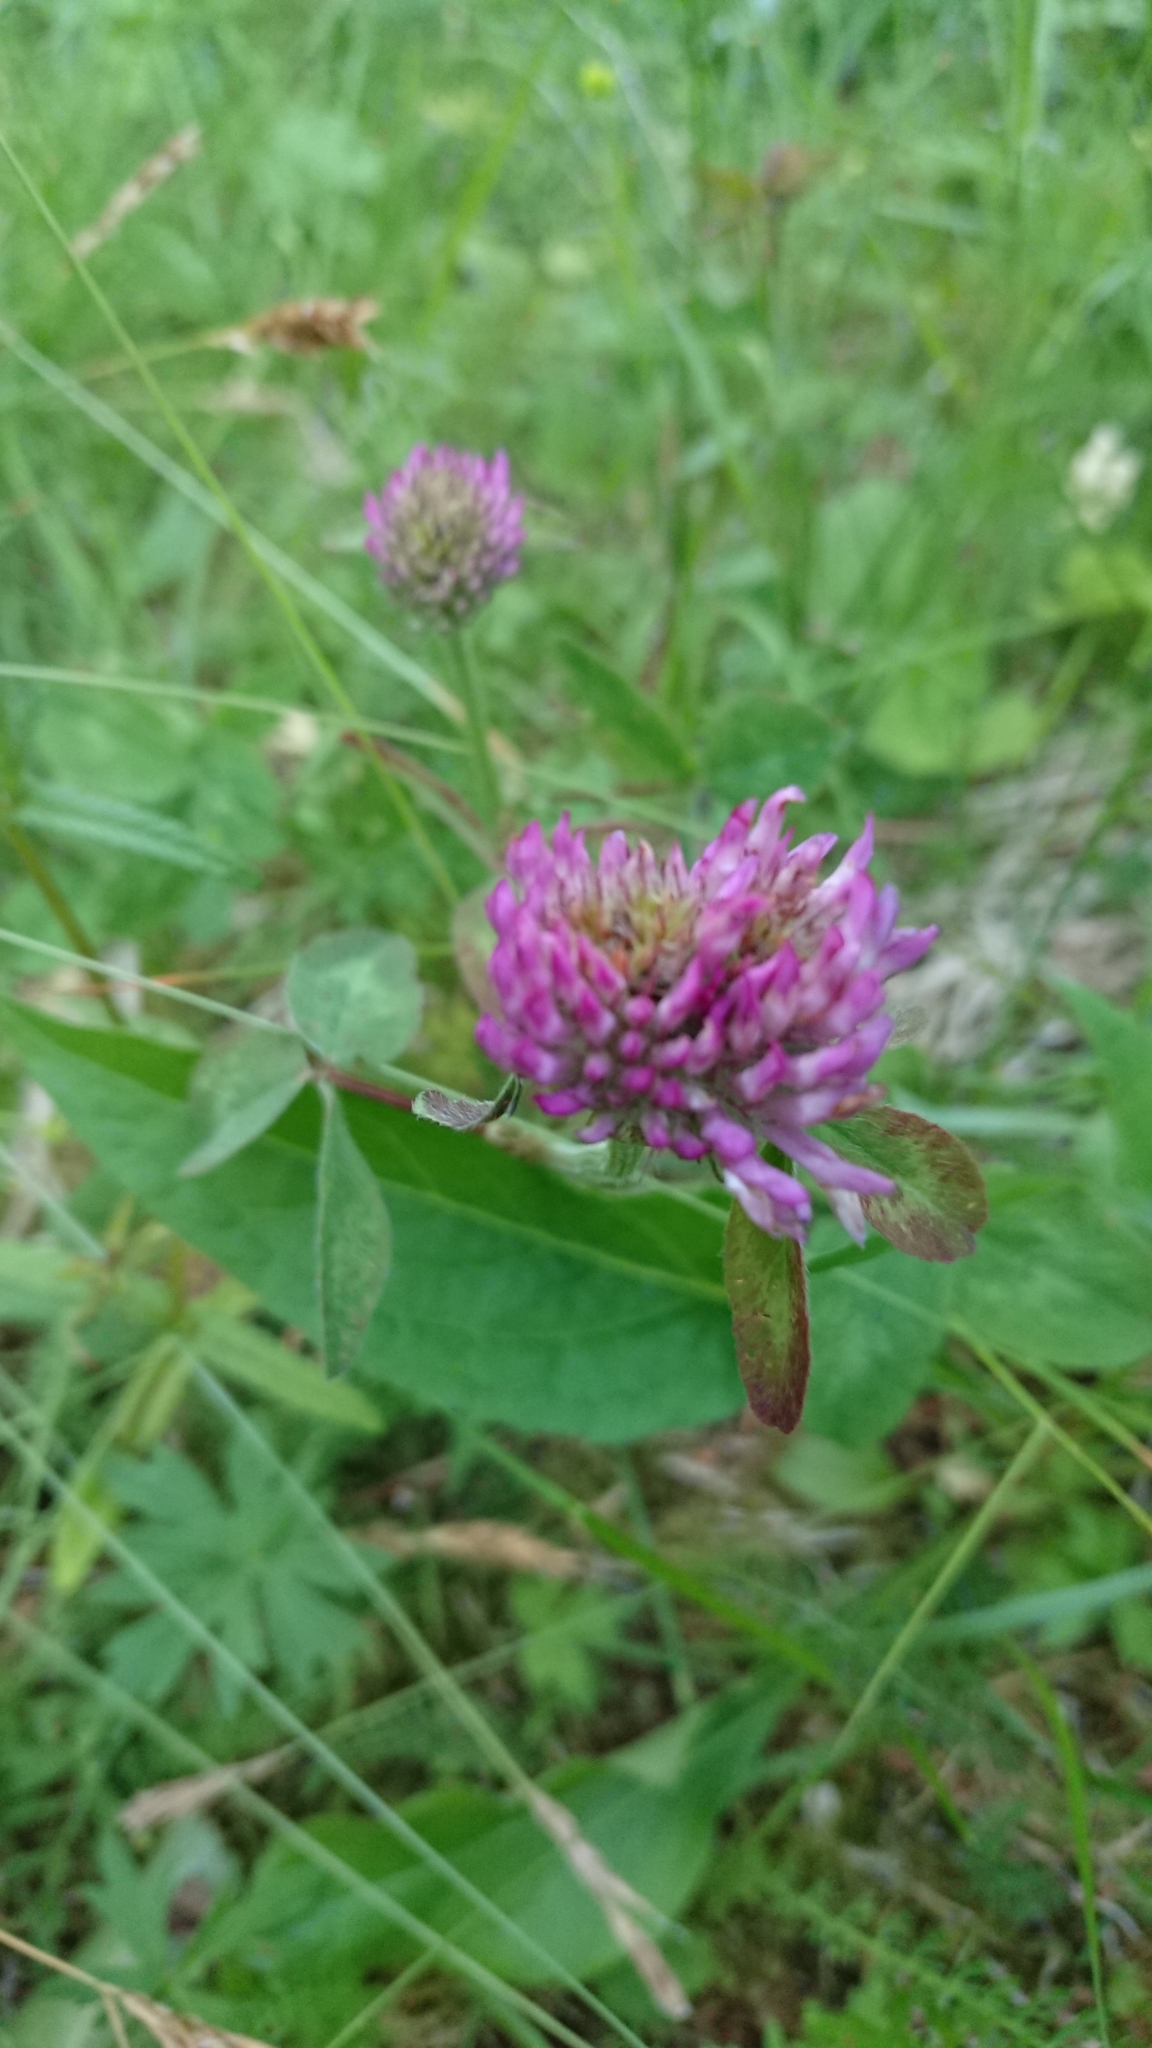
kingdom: Plantae
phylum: Tracheophyta
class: Magnoliopsida
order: Fabales
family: Fabaceae
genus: Trifolium
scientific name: Trifolium pratense
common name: Red clover
